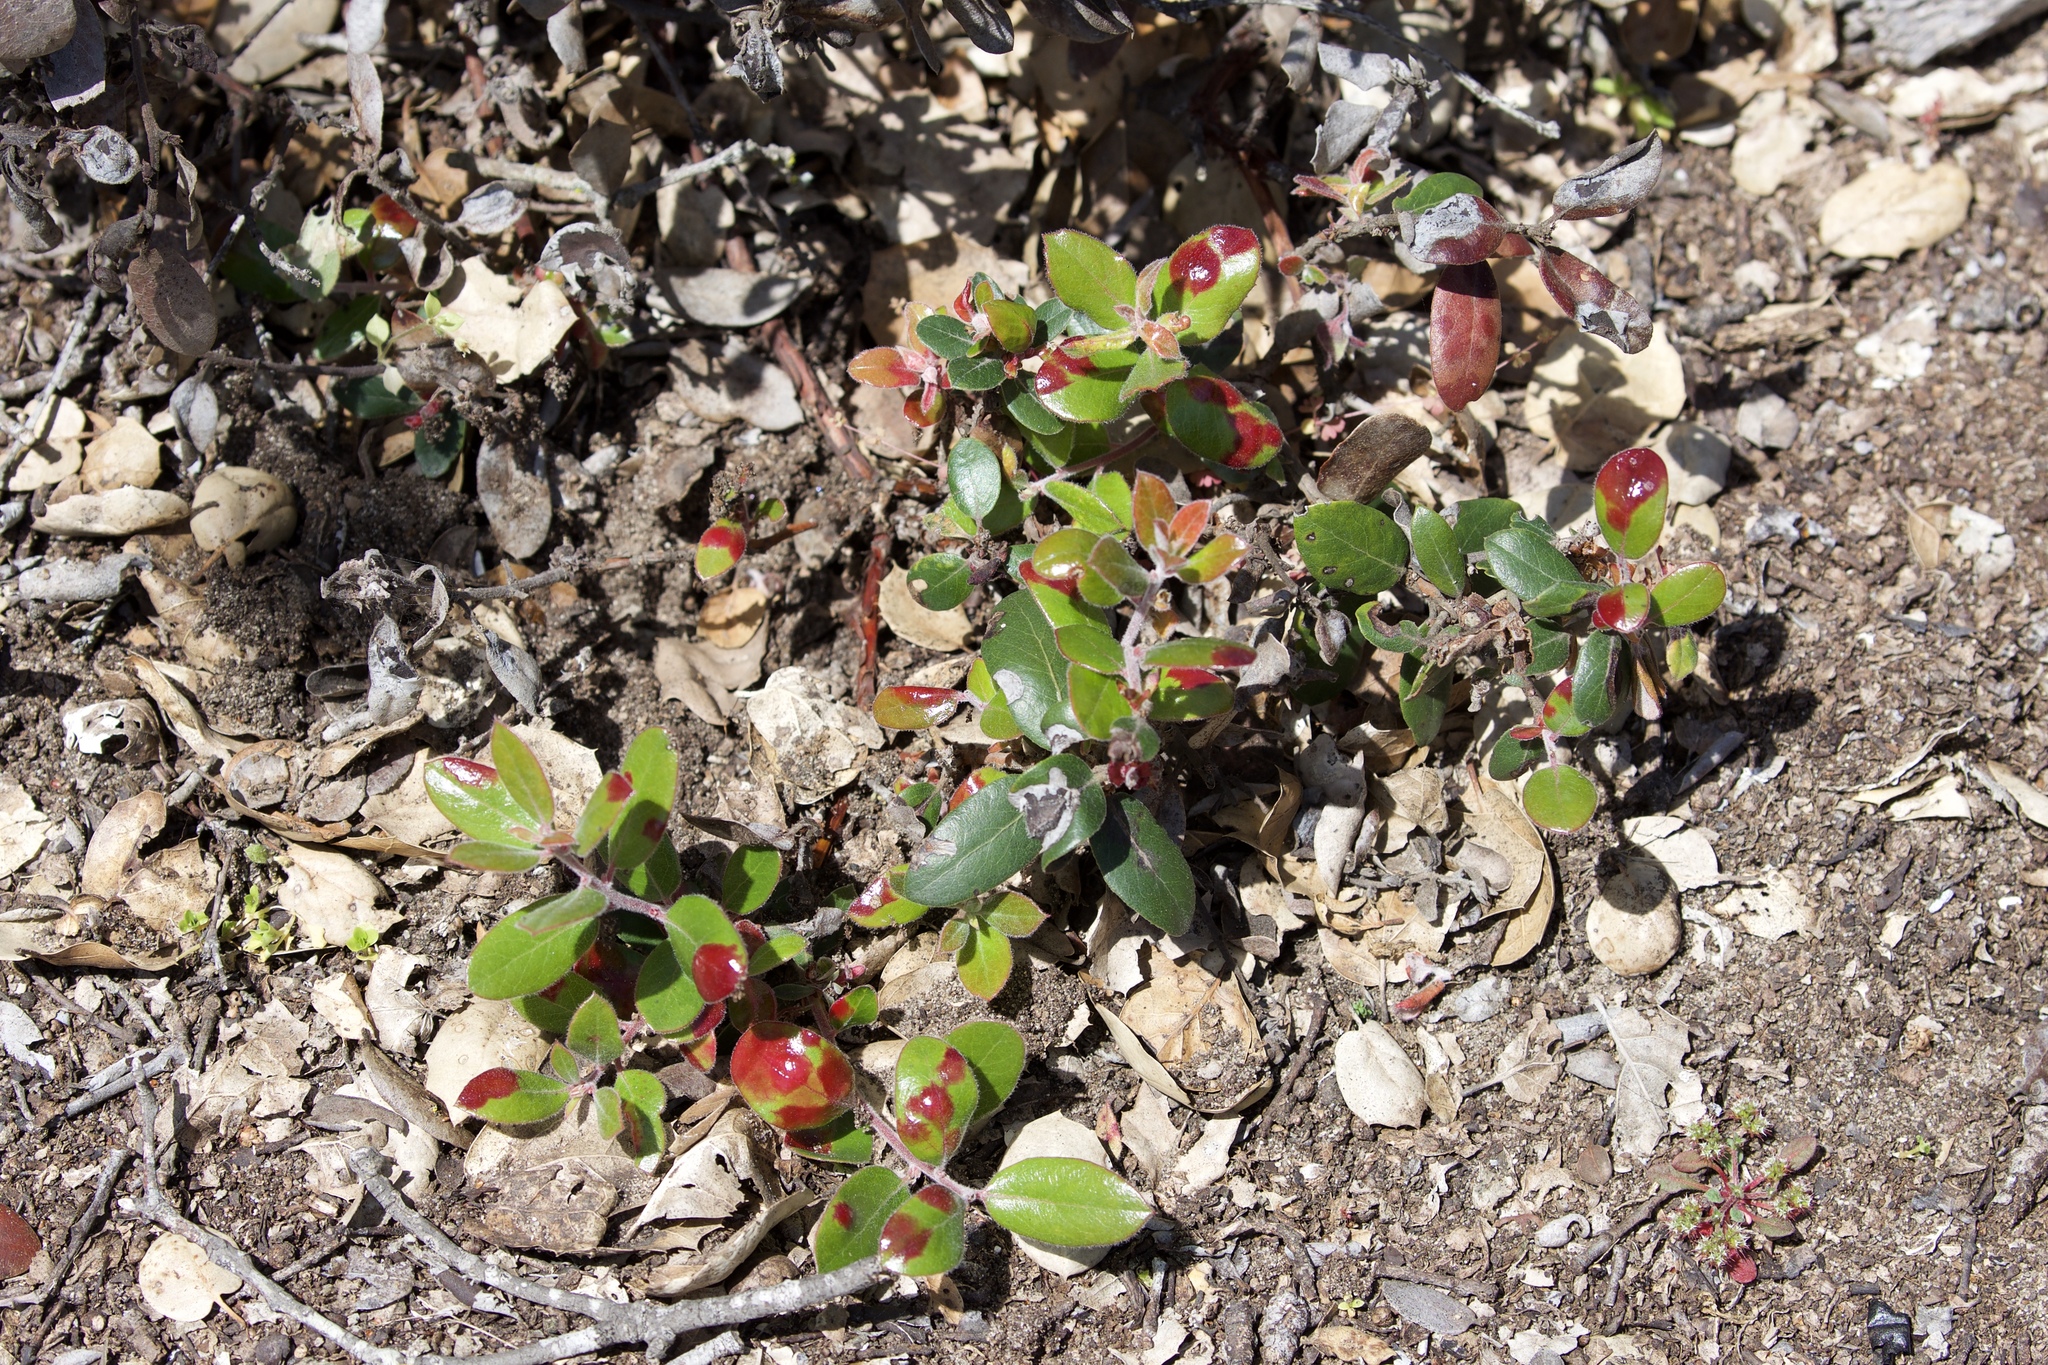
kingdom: Plantae
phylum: Tracheophyta
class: Magnoliopsida
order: Ericales
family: Ericaceae
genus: Arctostaphylos
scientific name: Arctostaphylos tomentosa
